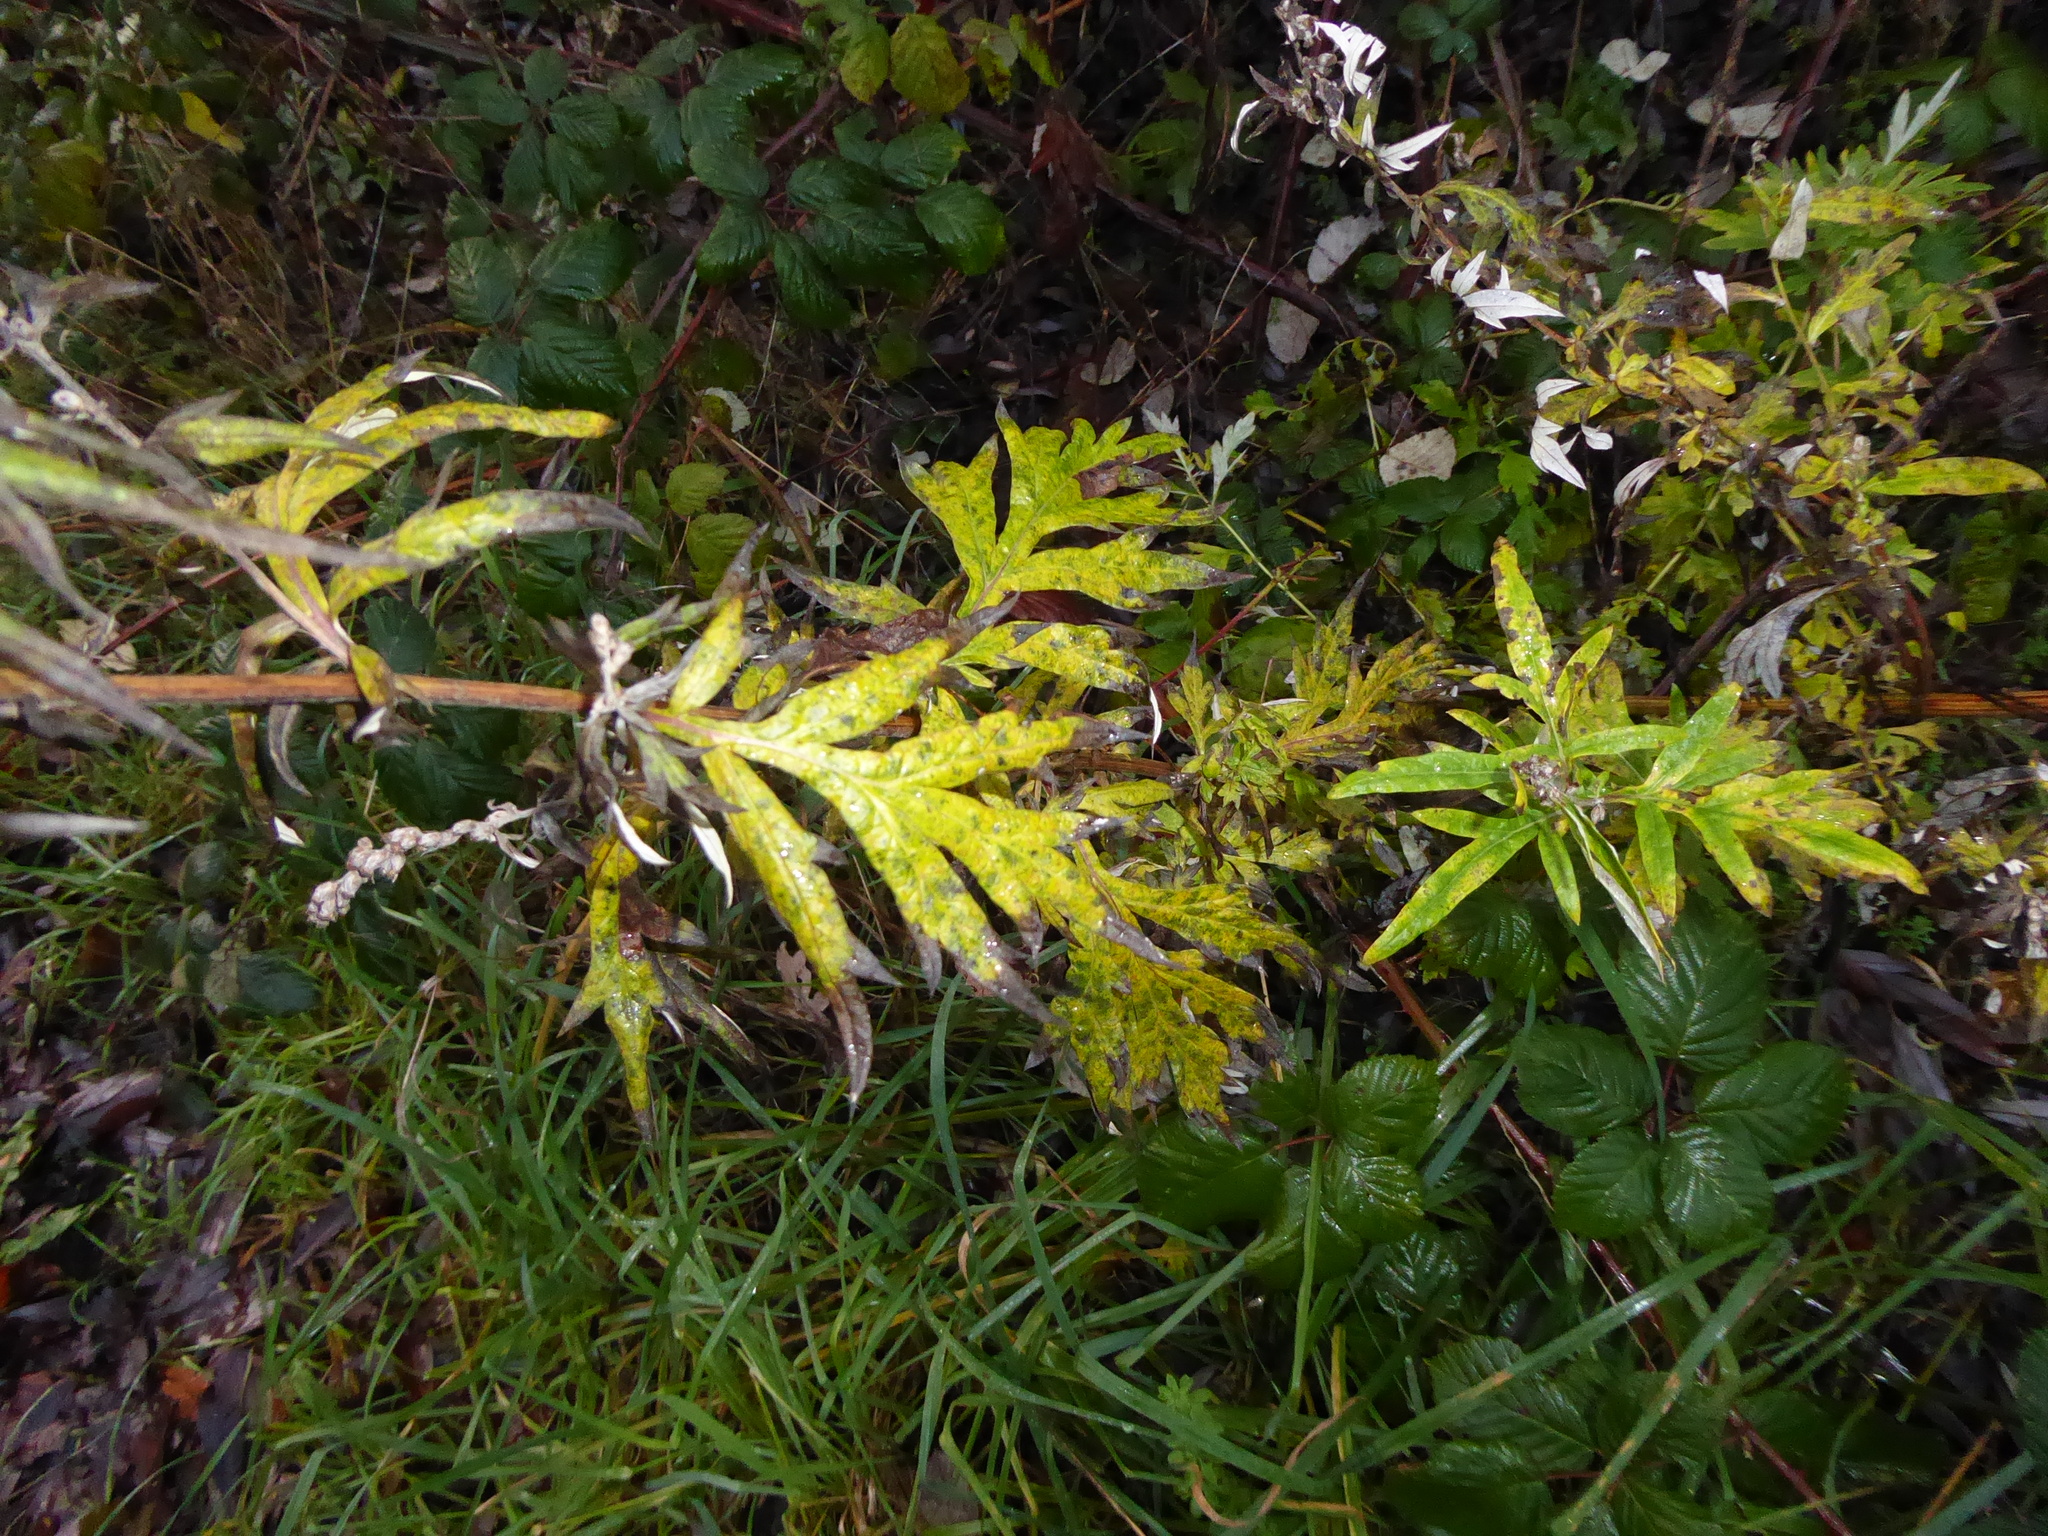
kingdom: Plantae
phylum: Tracheophyta
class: Magnoliopsida
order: Asterales
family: Asteraceae
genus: Artemisia
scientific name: Artemisia vulgaris
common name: Mugwort
